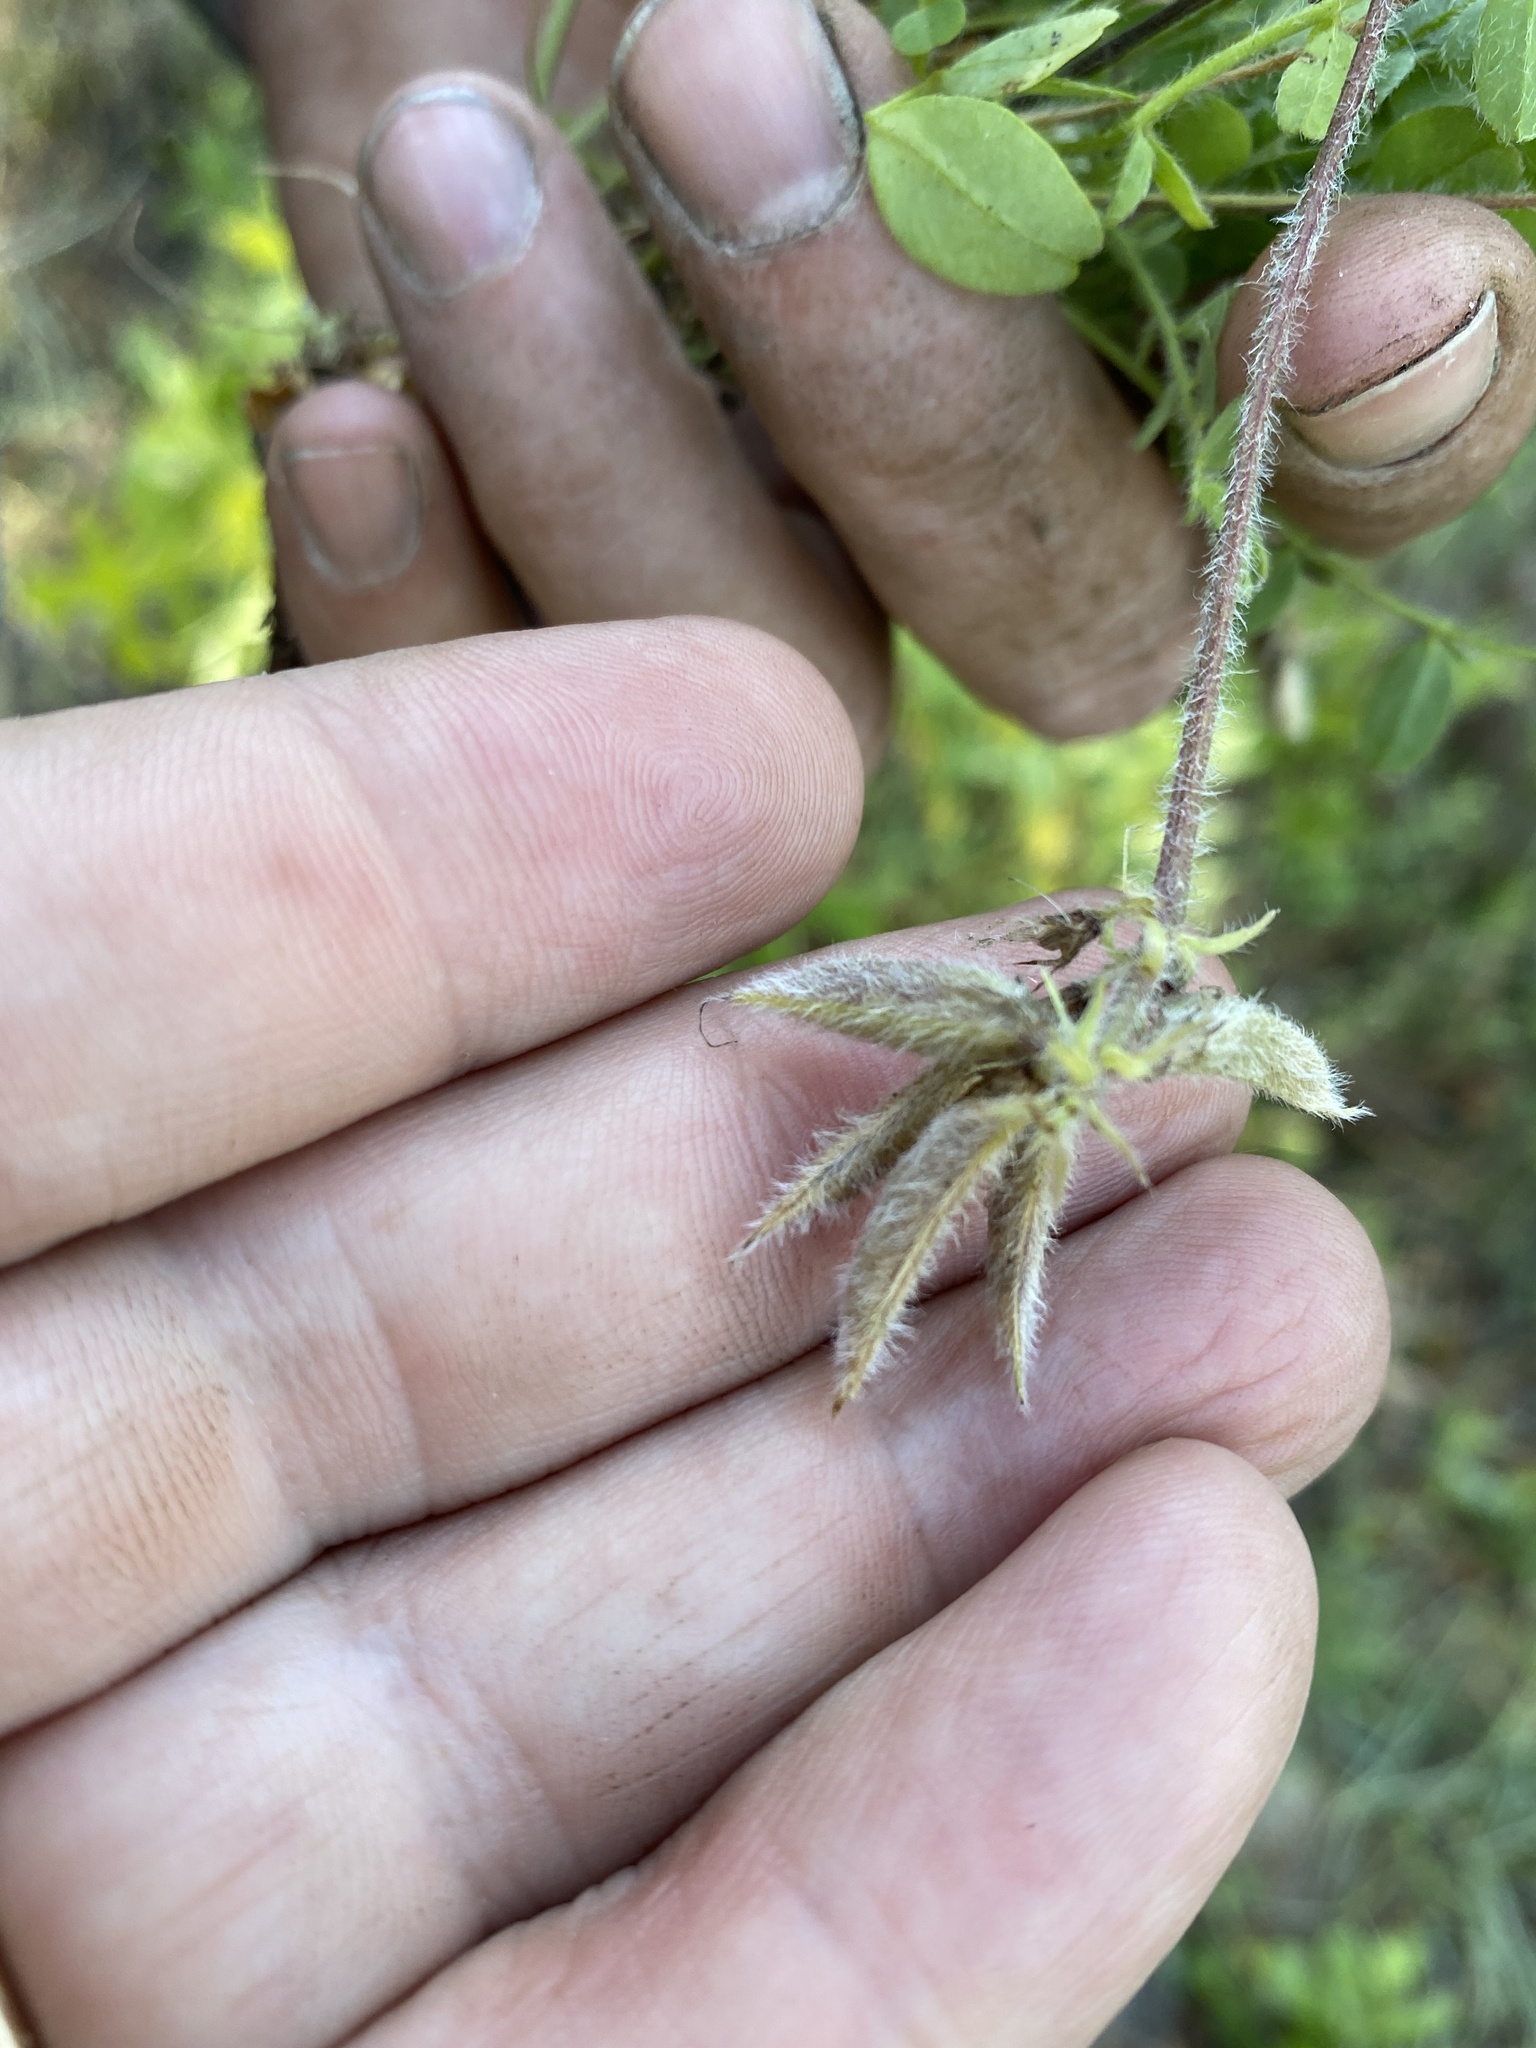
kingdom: Plantae
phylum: Tracheophyta
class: Magnoliopsida
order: Fabales
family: Fabaceae
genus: Astragalus
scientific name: Astragalus villosus
